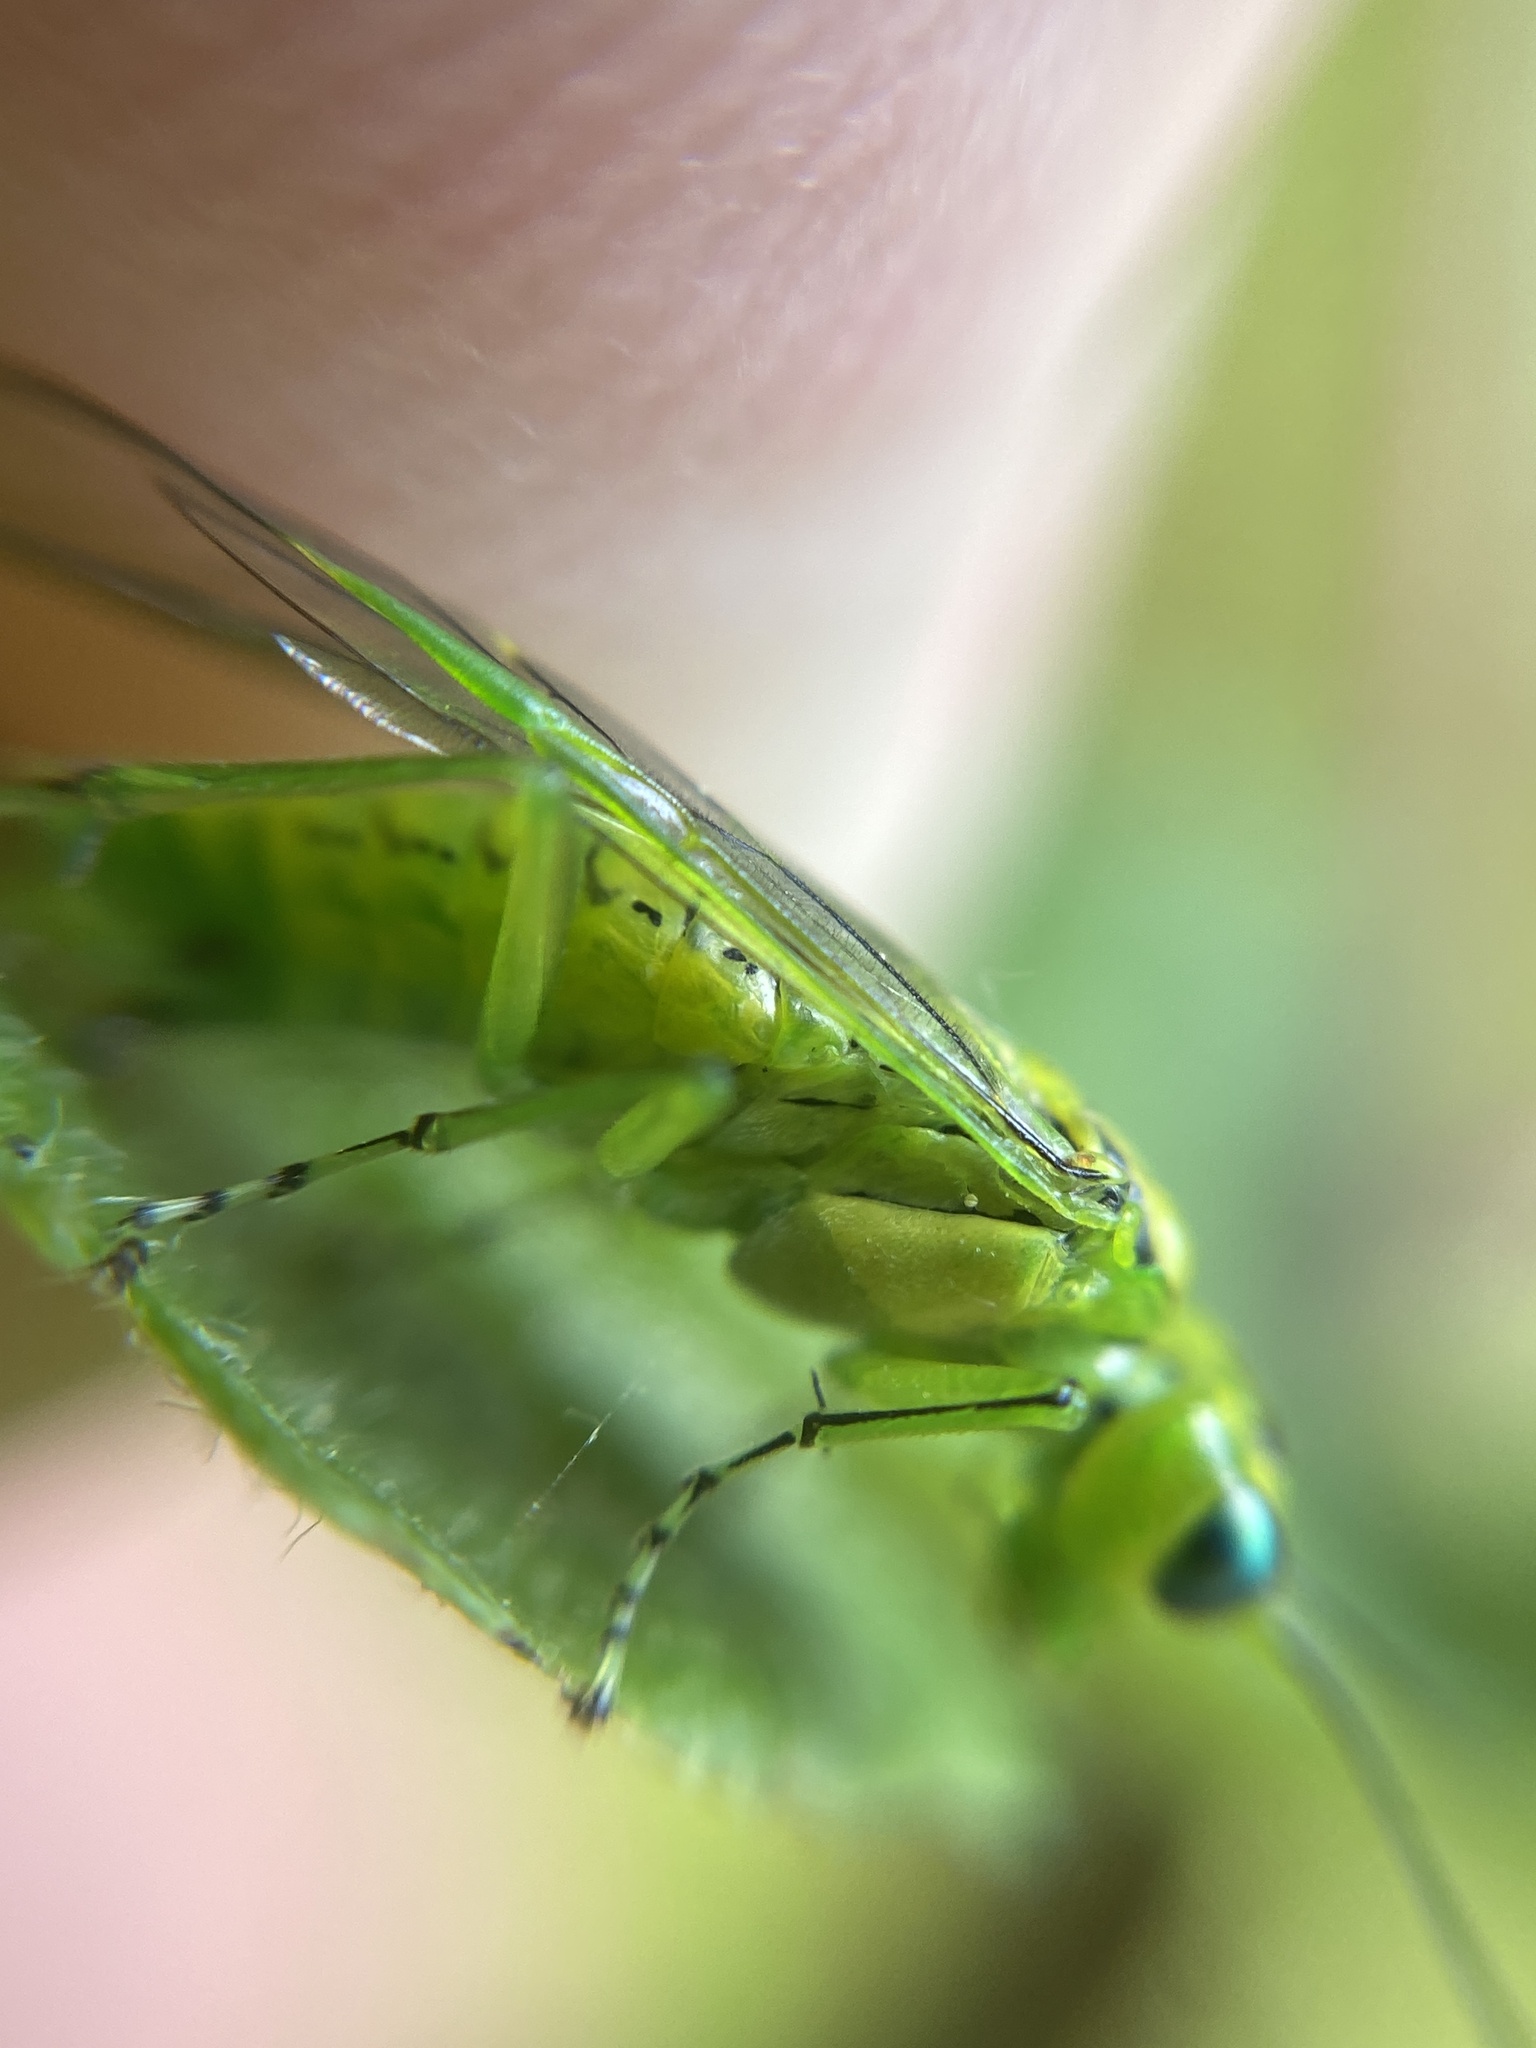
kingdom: Animalia
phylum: Arthropoda
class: Insecta
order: Hymenoptera
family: Tenthredinidae
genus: Rhogogaster
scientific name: Rhogogaster punctulata
